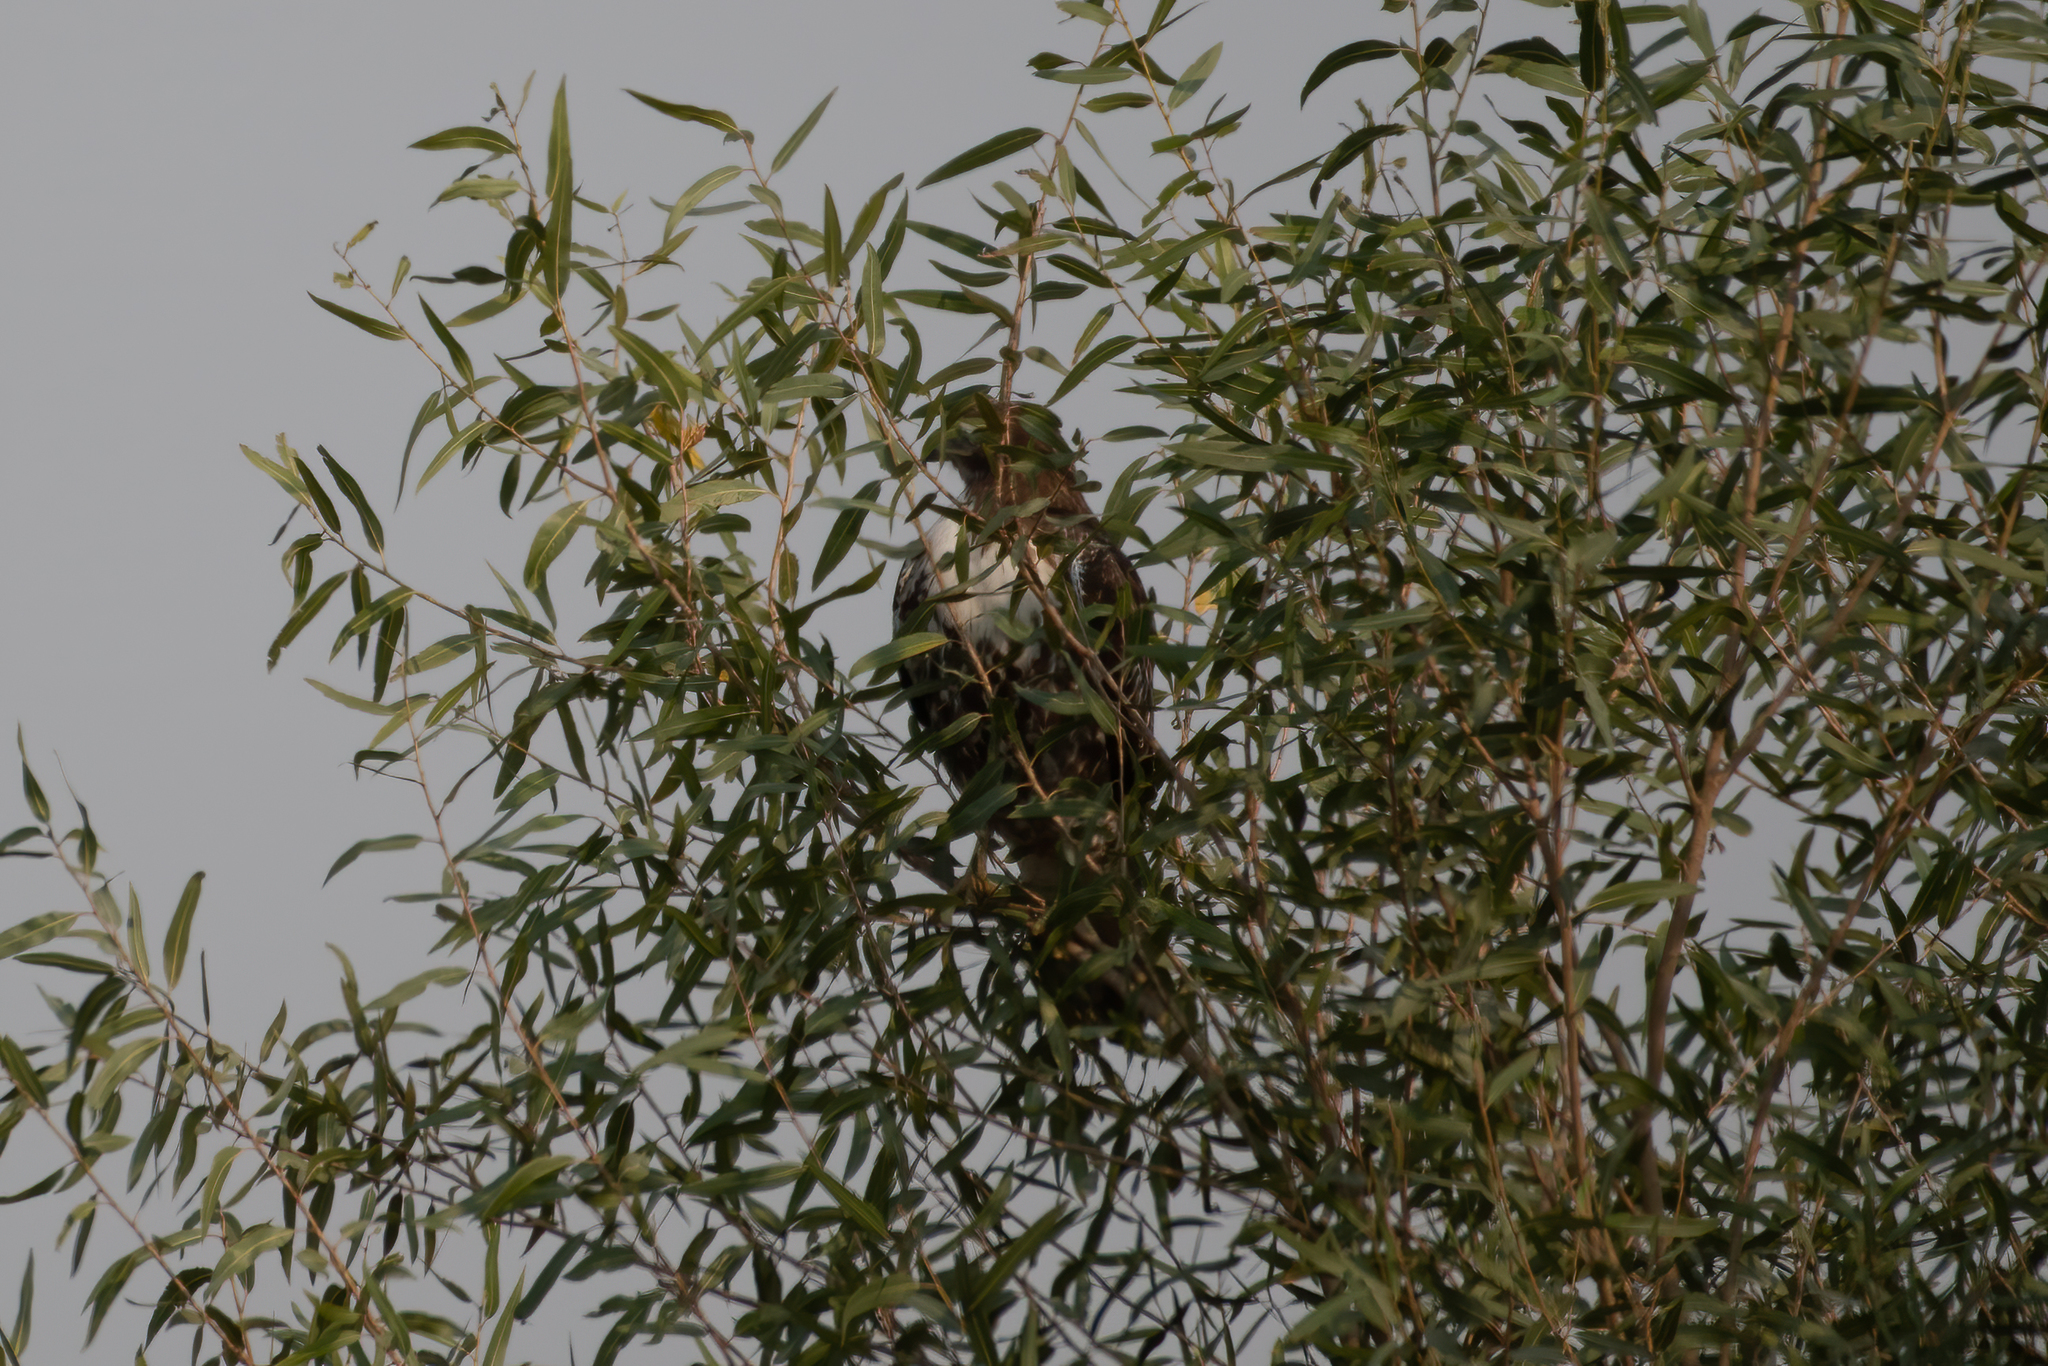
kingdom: Animalia
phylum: Chordata
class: Aves
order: Accipitriformes
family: Accipitridae
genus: Buteo
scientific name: Buteo jamaicensis
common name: Red-tailed hawk
